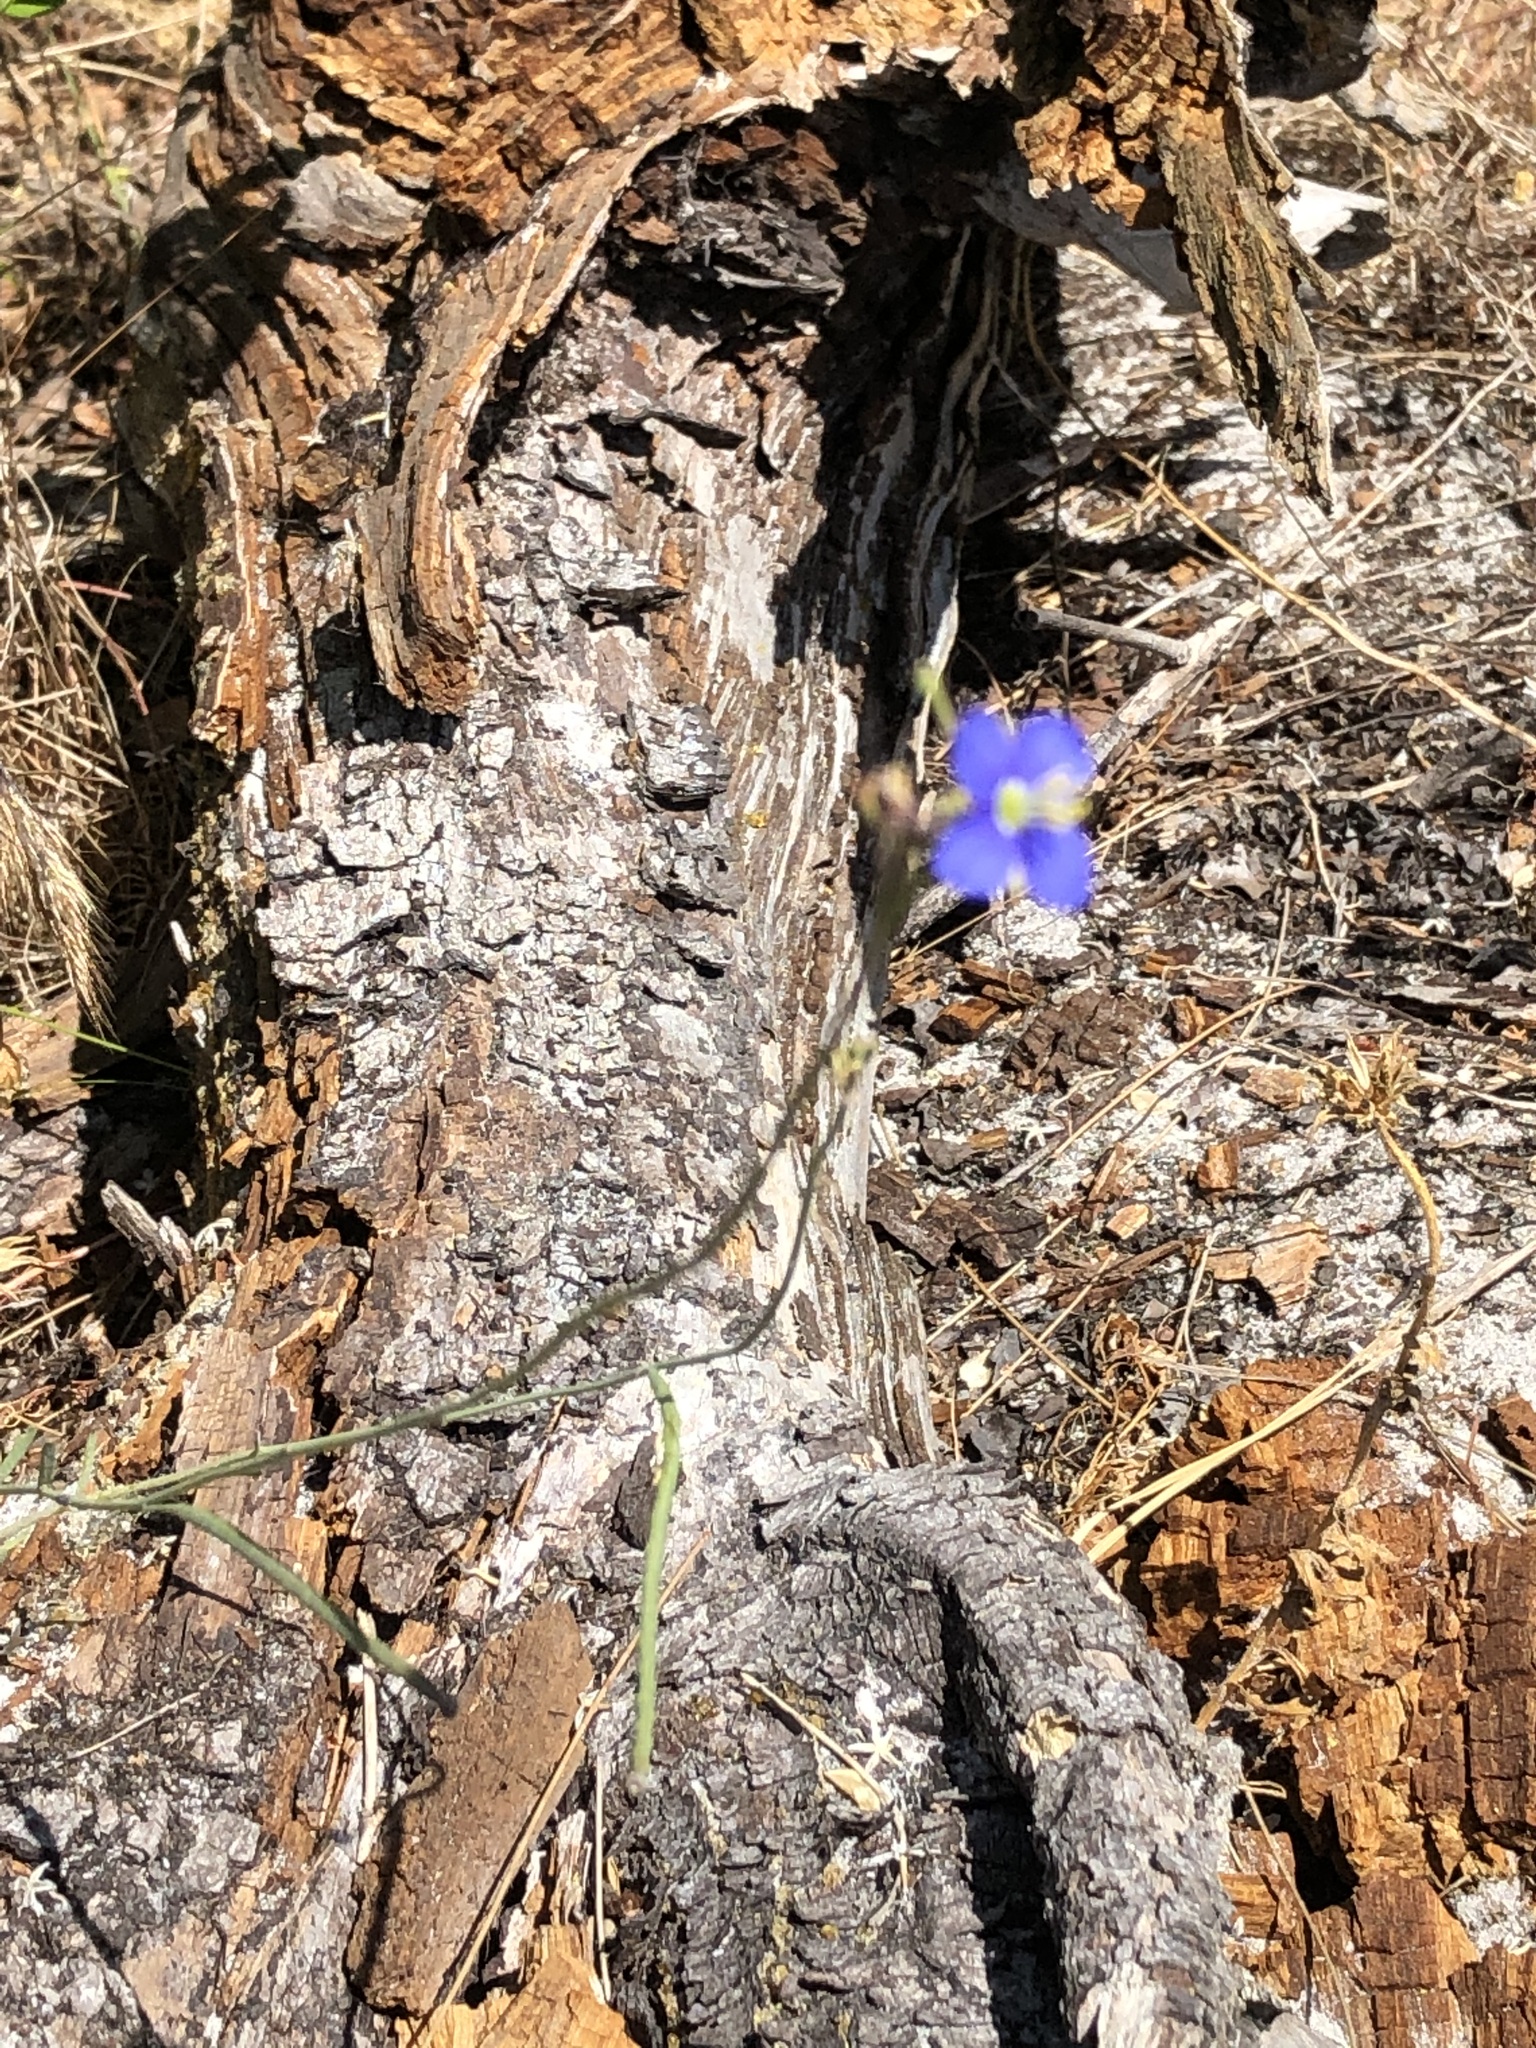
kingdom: Plantae
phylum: Tracheophyta
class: Magnoliopsida
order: Brassicales
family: Brassicaceae
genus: Heliophila
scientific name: Heliophila africana
